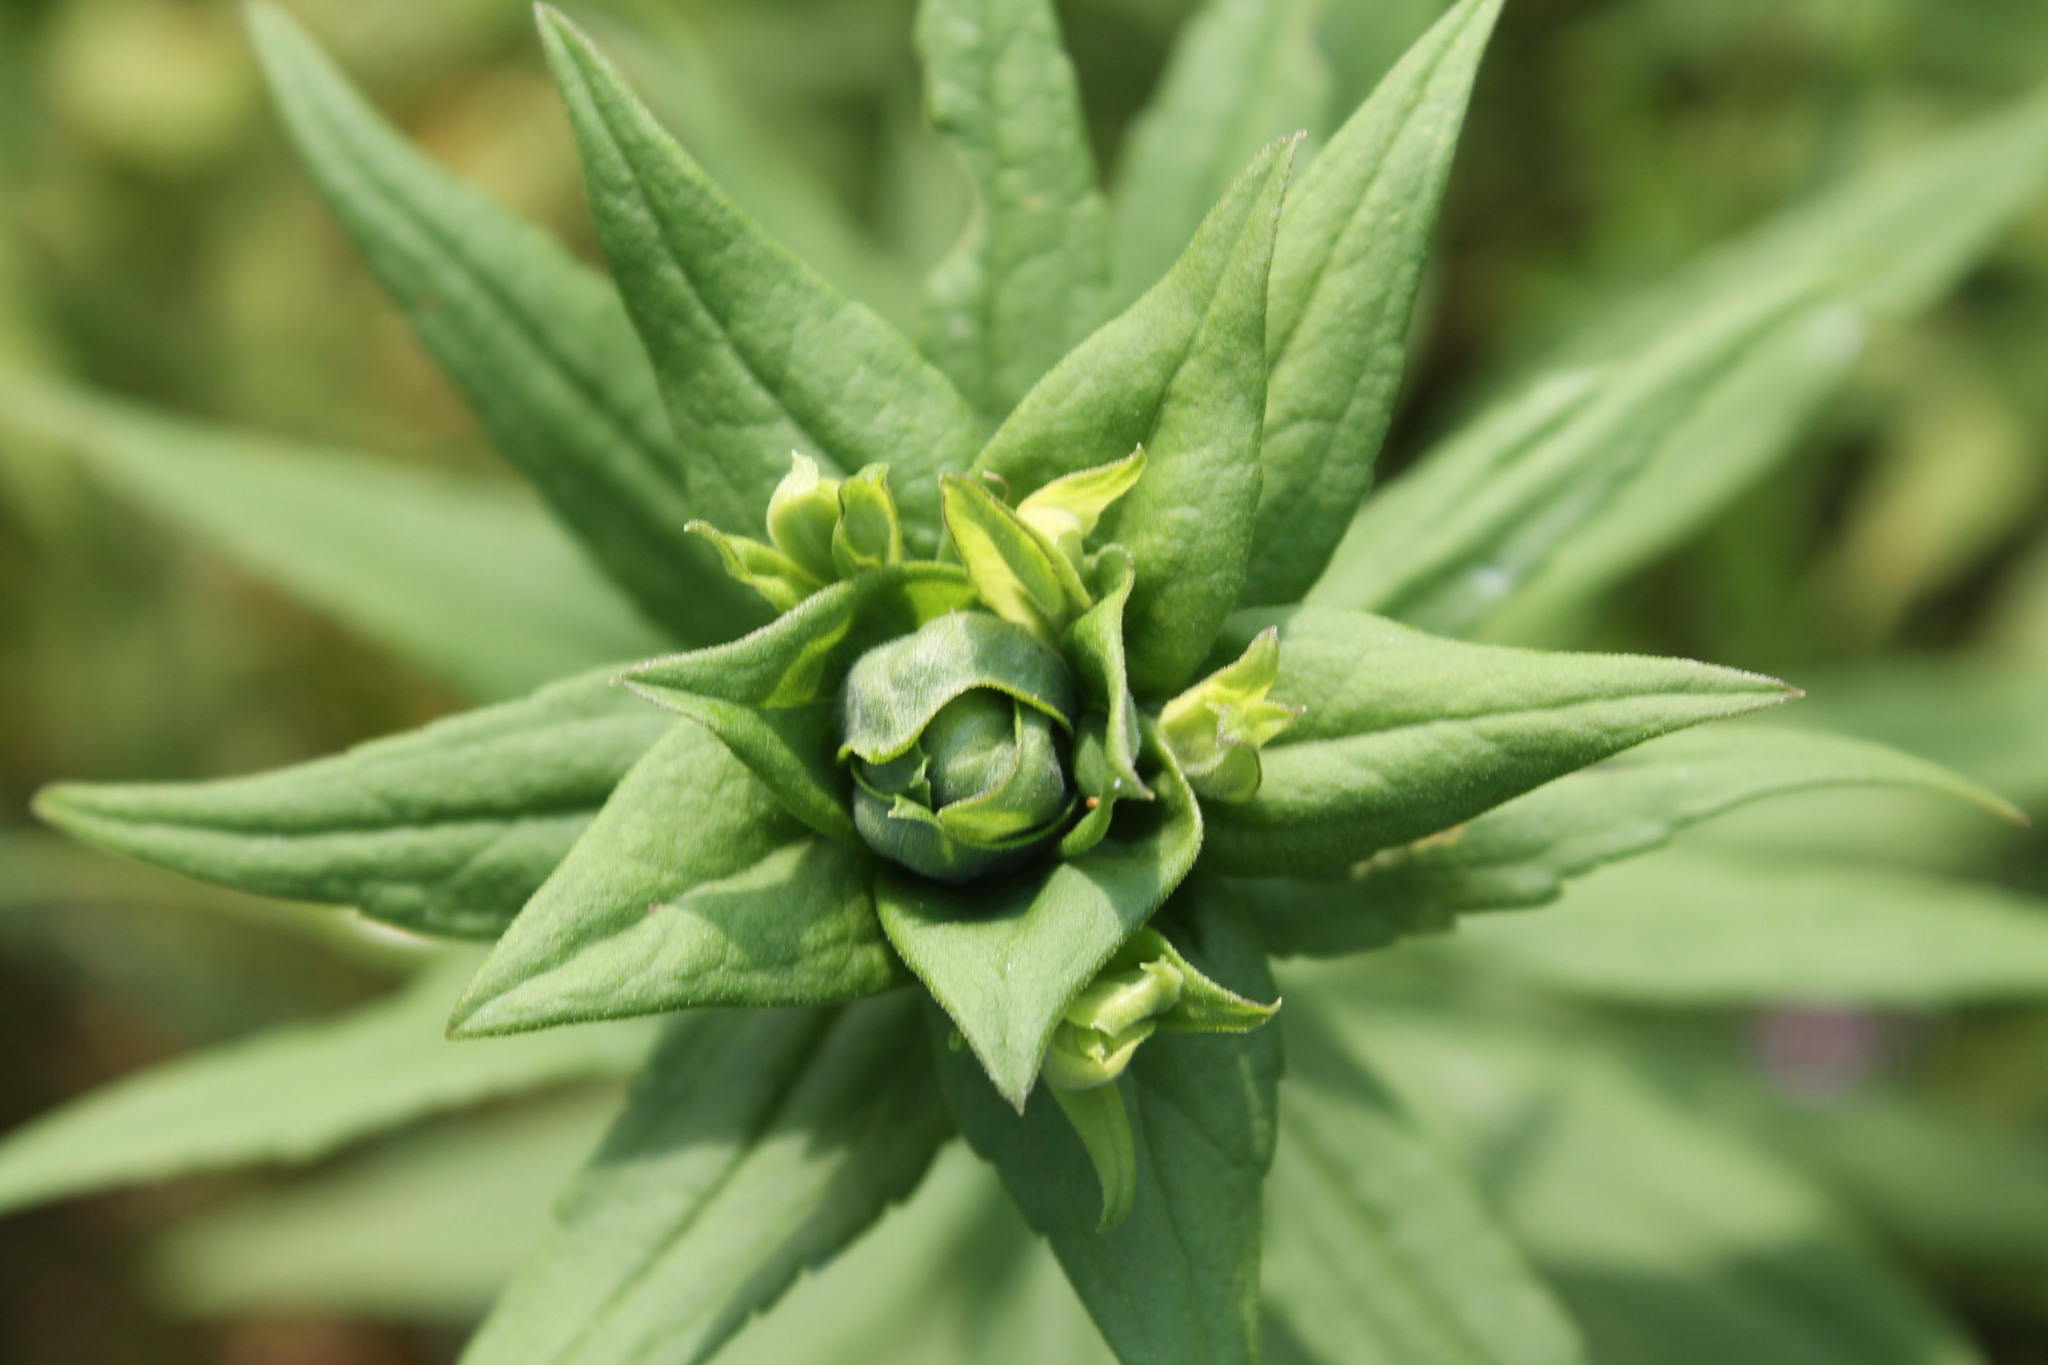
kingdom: Animalia
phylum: Arthropoda
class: Insecta
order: Diptera
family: Cecidomyiidae
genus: Rhopalomyia
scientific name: Rhopalomyia solidaginis
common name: Goldenrod bunch gall midge
